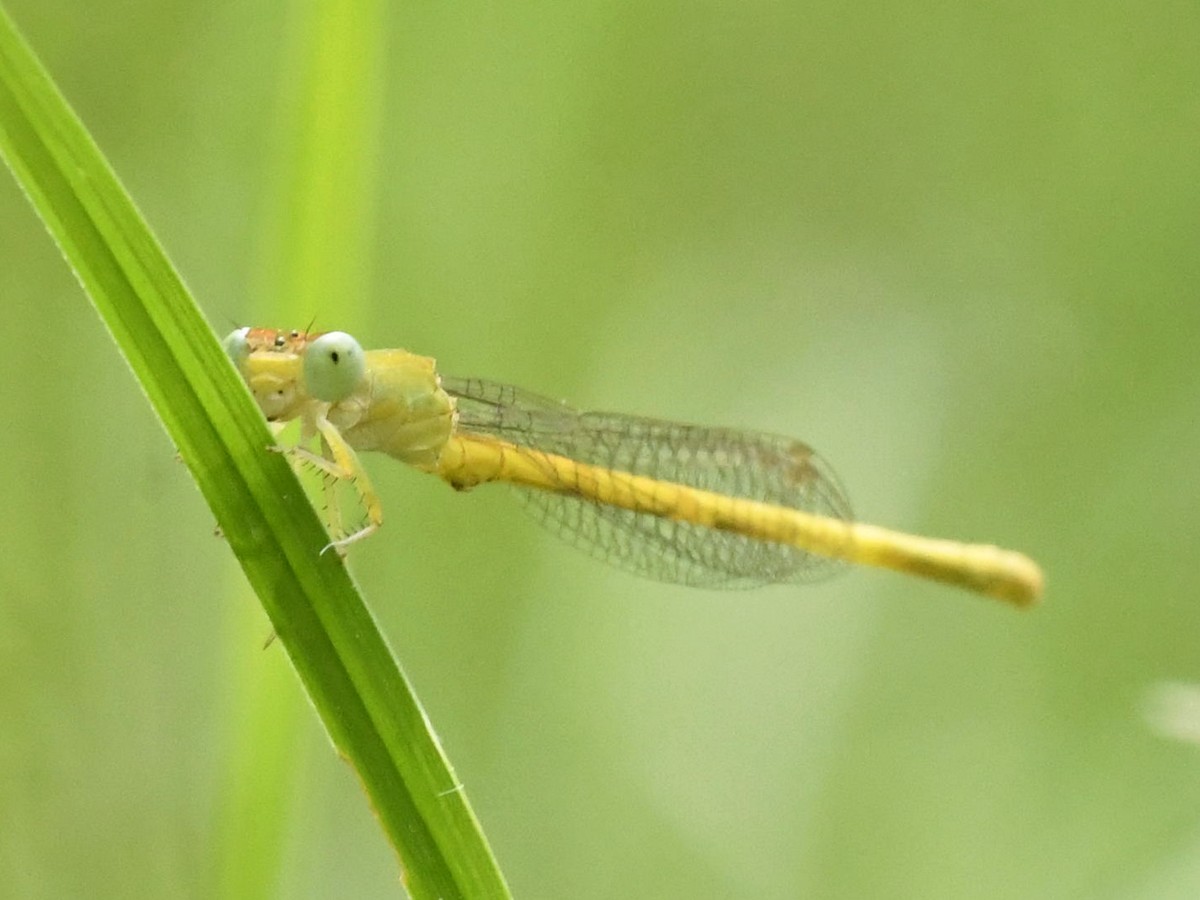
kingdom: Animalia
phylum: Arthropoda
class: Insecta
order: Odonata
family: Coenagrionidae
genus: Ceriagrion
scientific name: Ceriagrion coromandelianum
